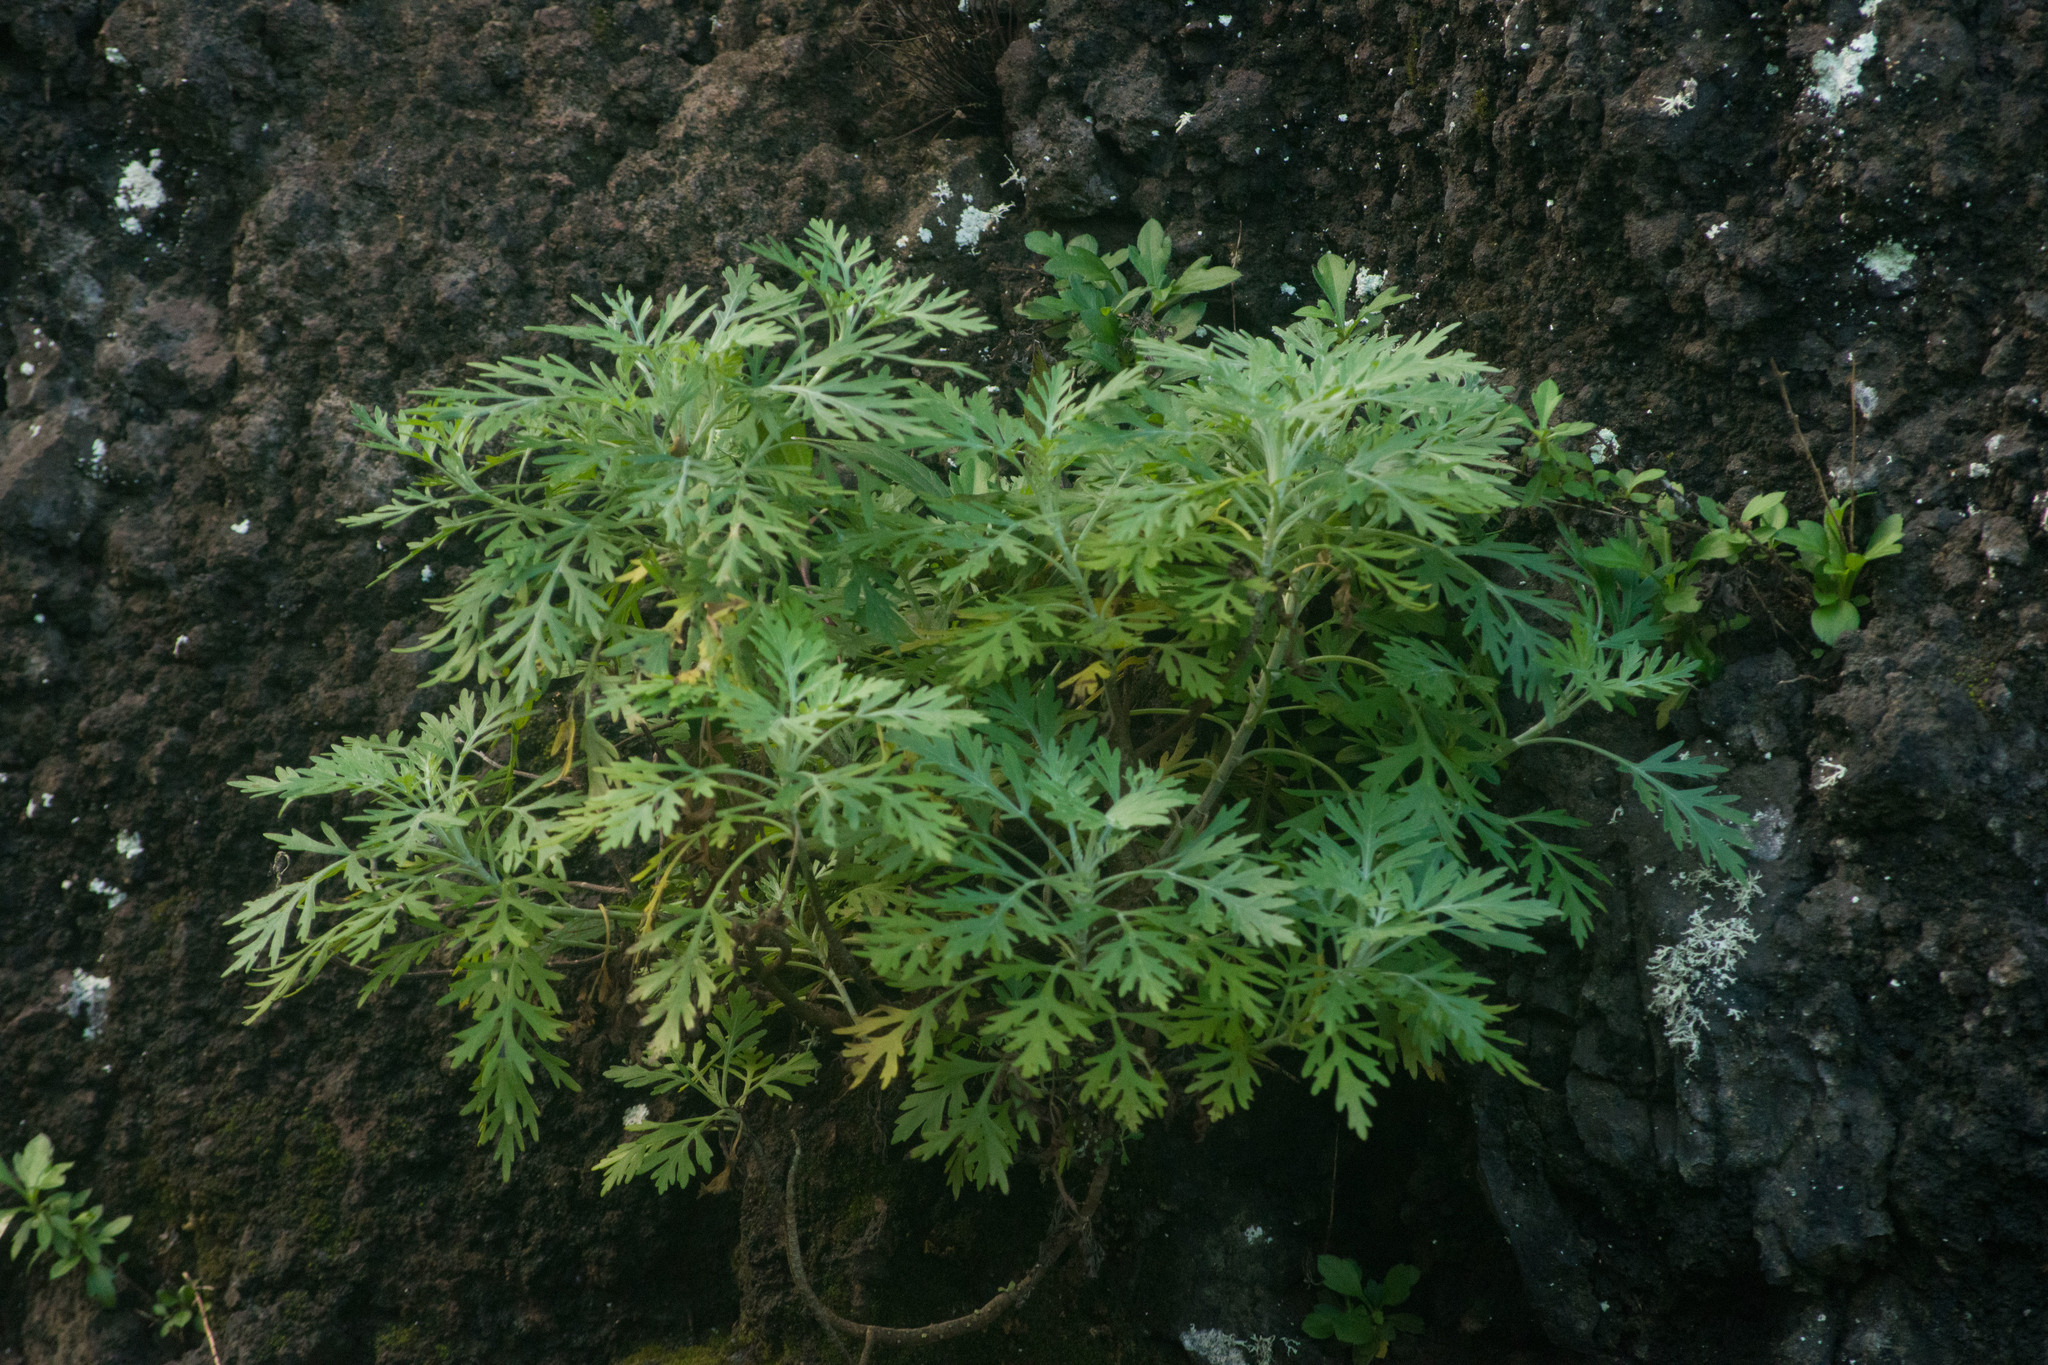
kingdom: Plantae
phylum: Tracheophyta
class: Magnoliopsida
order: Asterales
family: Asteraceae
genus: Artemisia
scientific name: Artemisia australis
